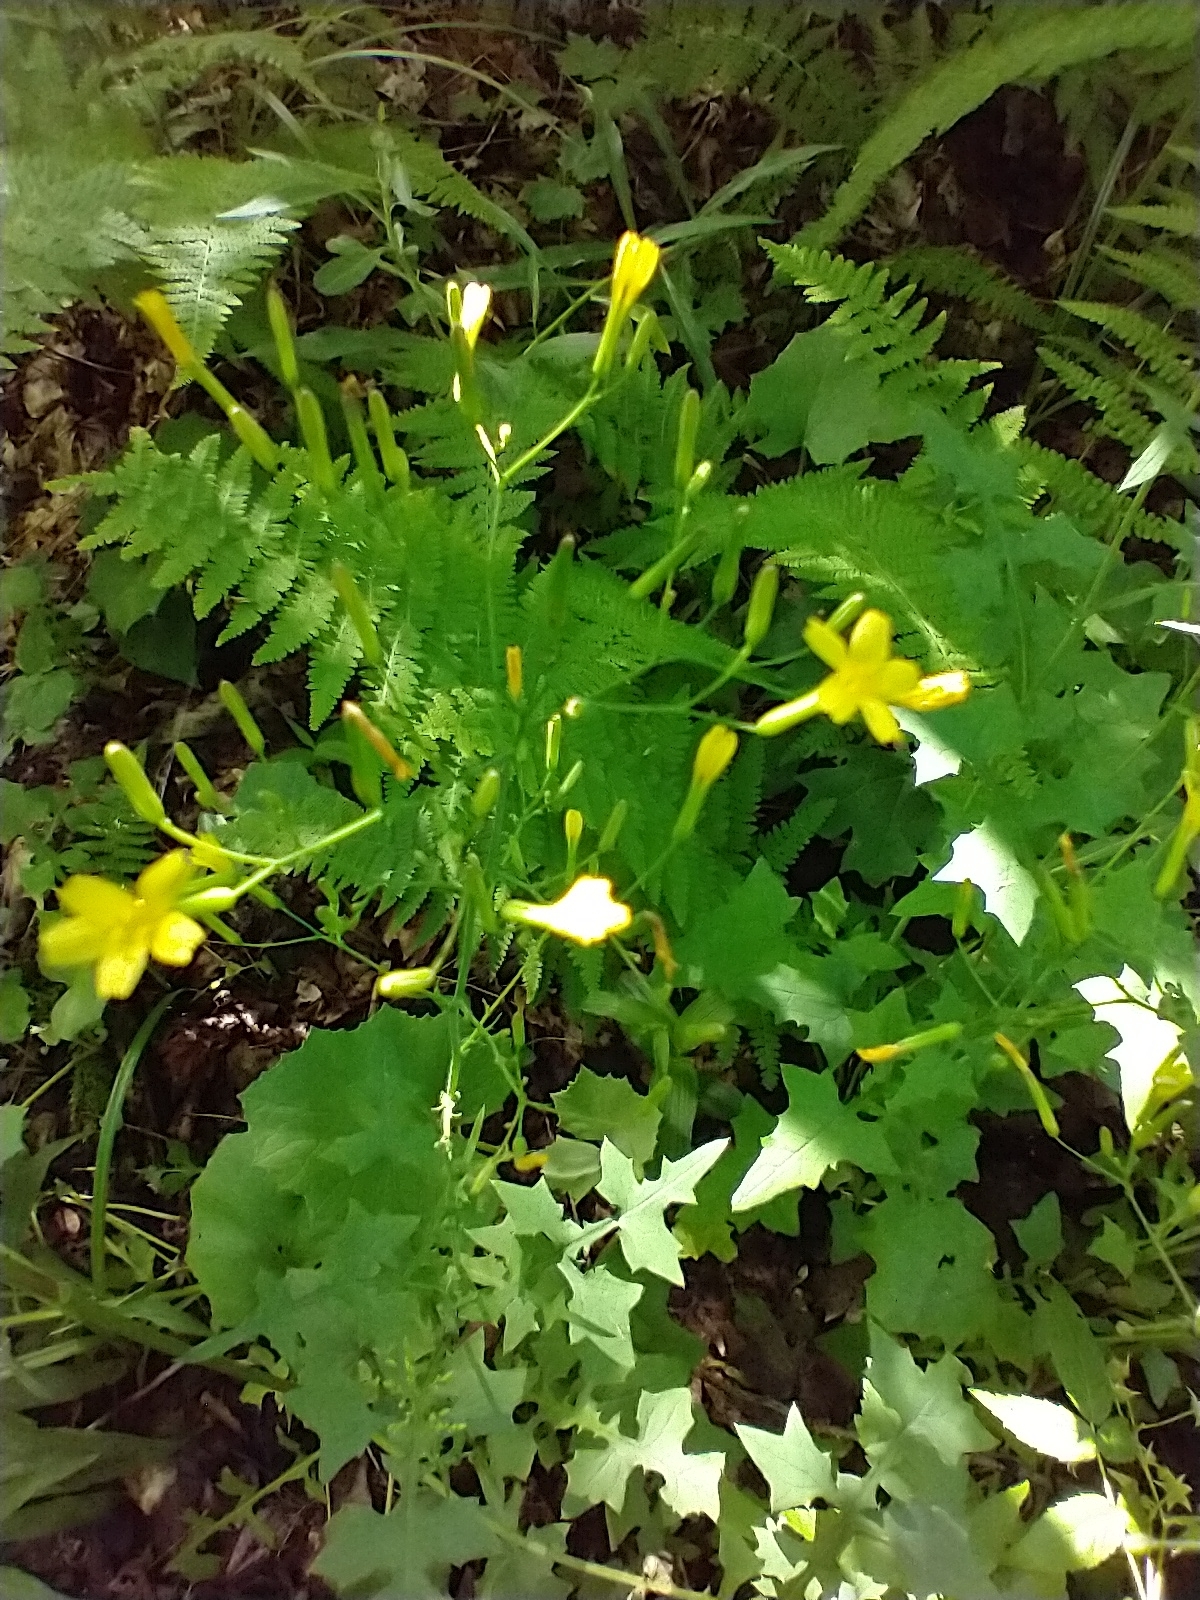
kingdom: Plantae
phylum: Tracheophyta
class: Magnoliopsida
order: Asterales
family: Asteraceae
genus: Mycelis
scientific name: Mycelis muralis
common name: Wall lettuce
